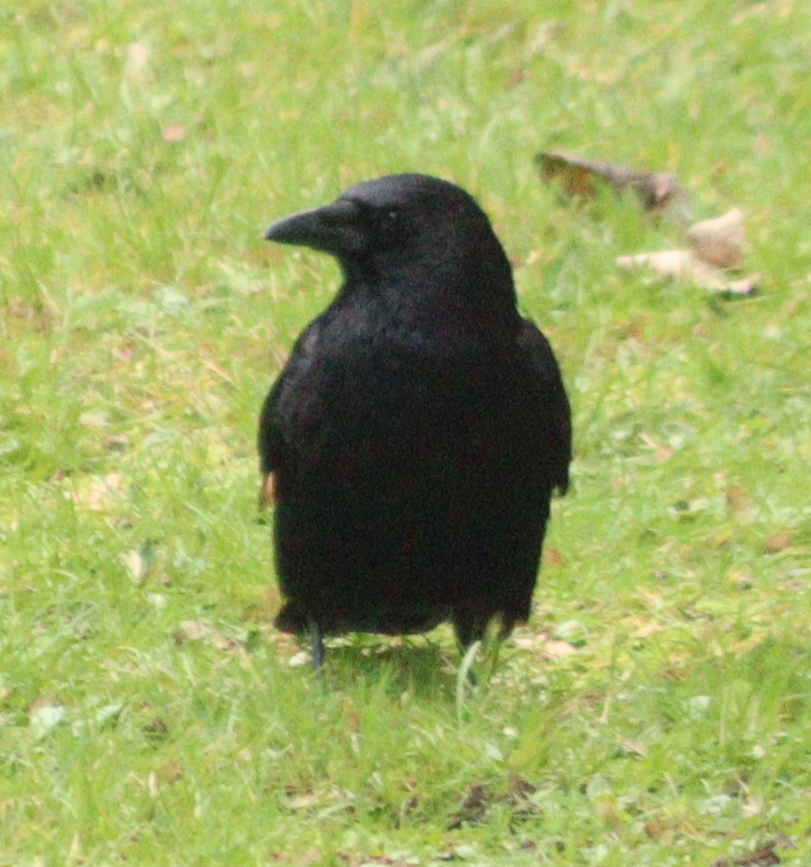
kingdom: Animalia
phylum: Chordata
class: Aves
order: Passeriformes
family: Corvidae
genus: Corvus
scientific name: Corvus corone
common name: Carrion crow
